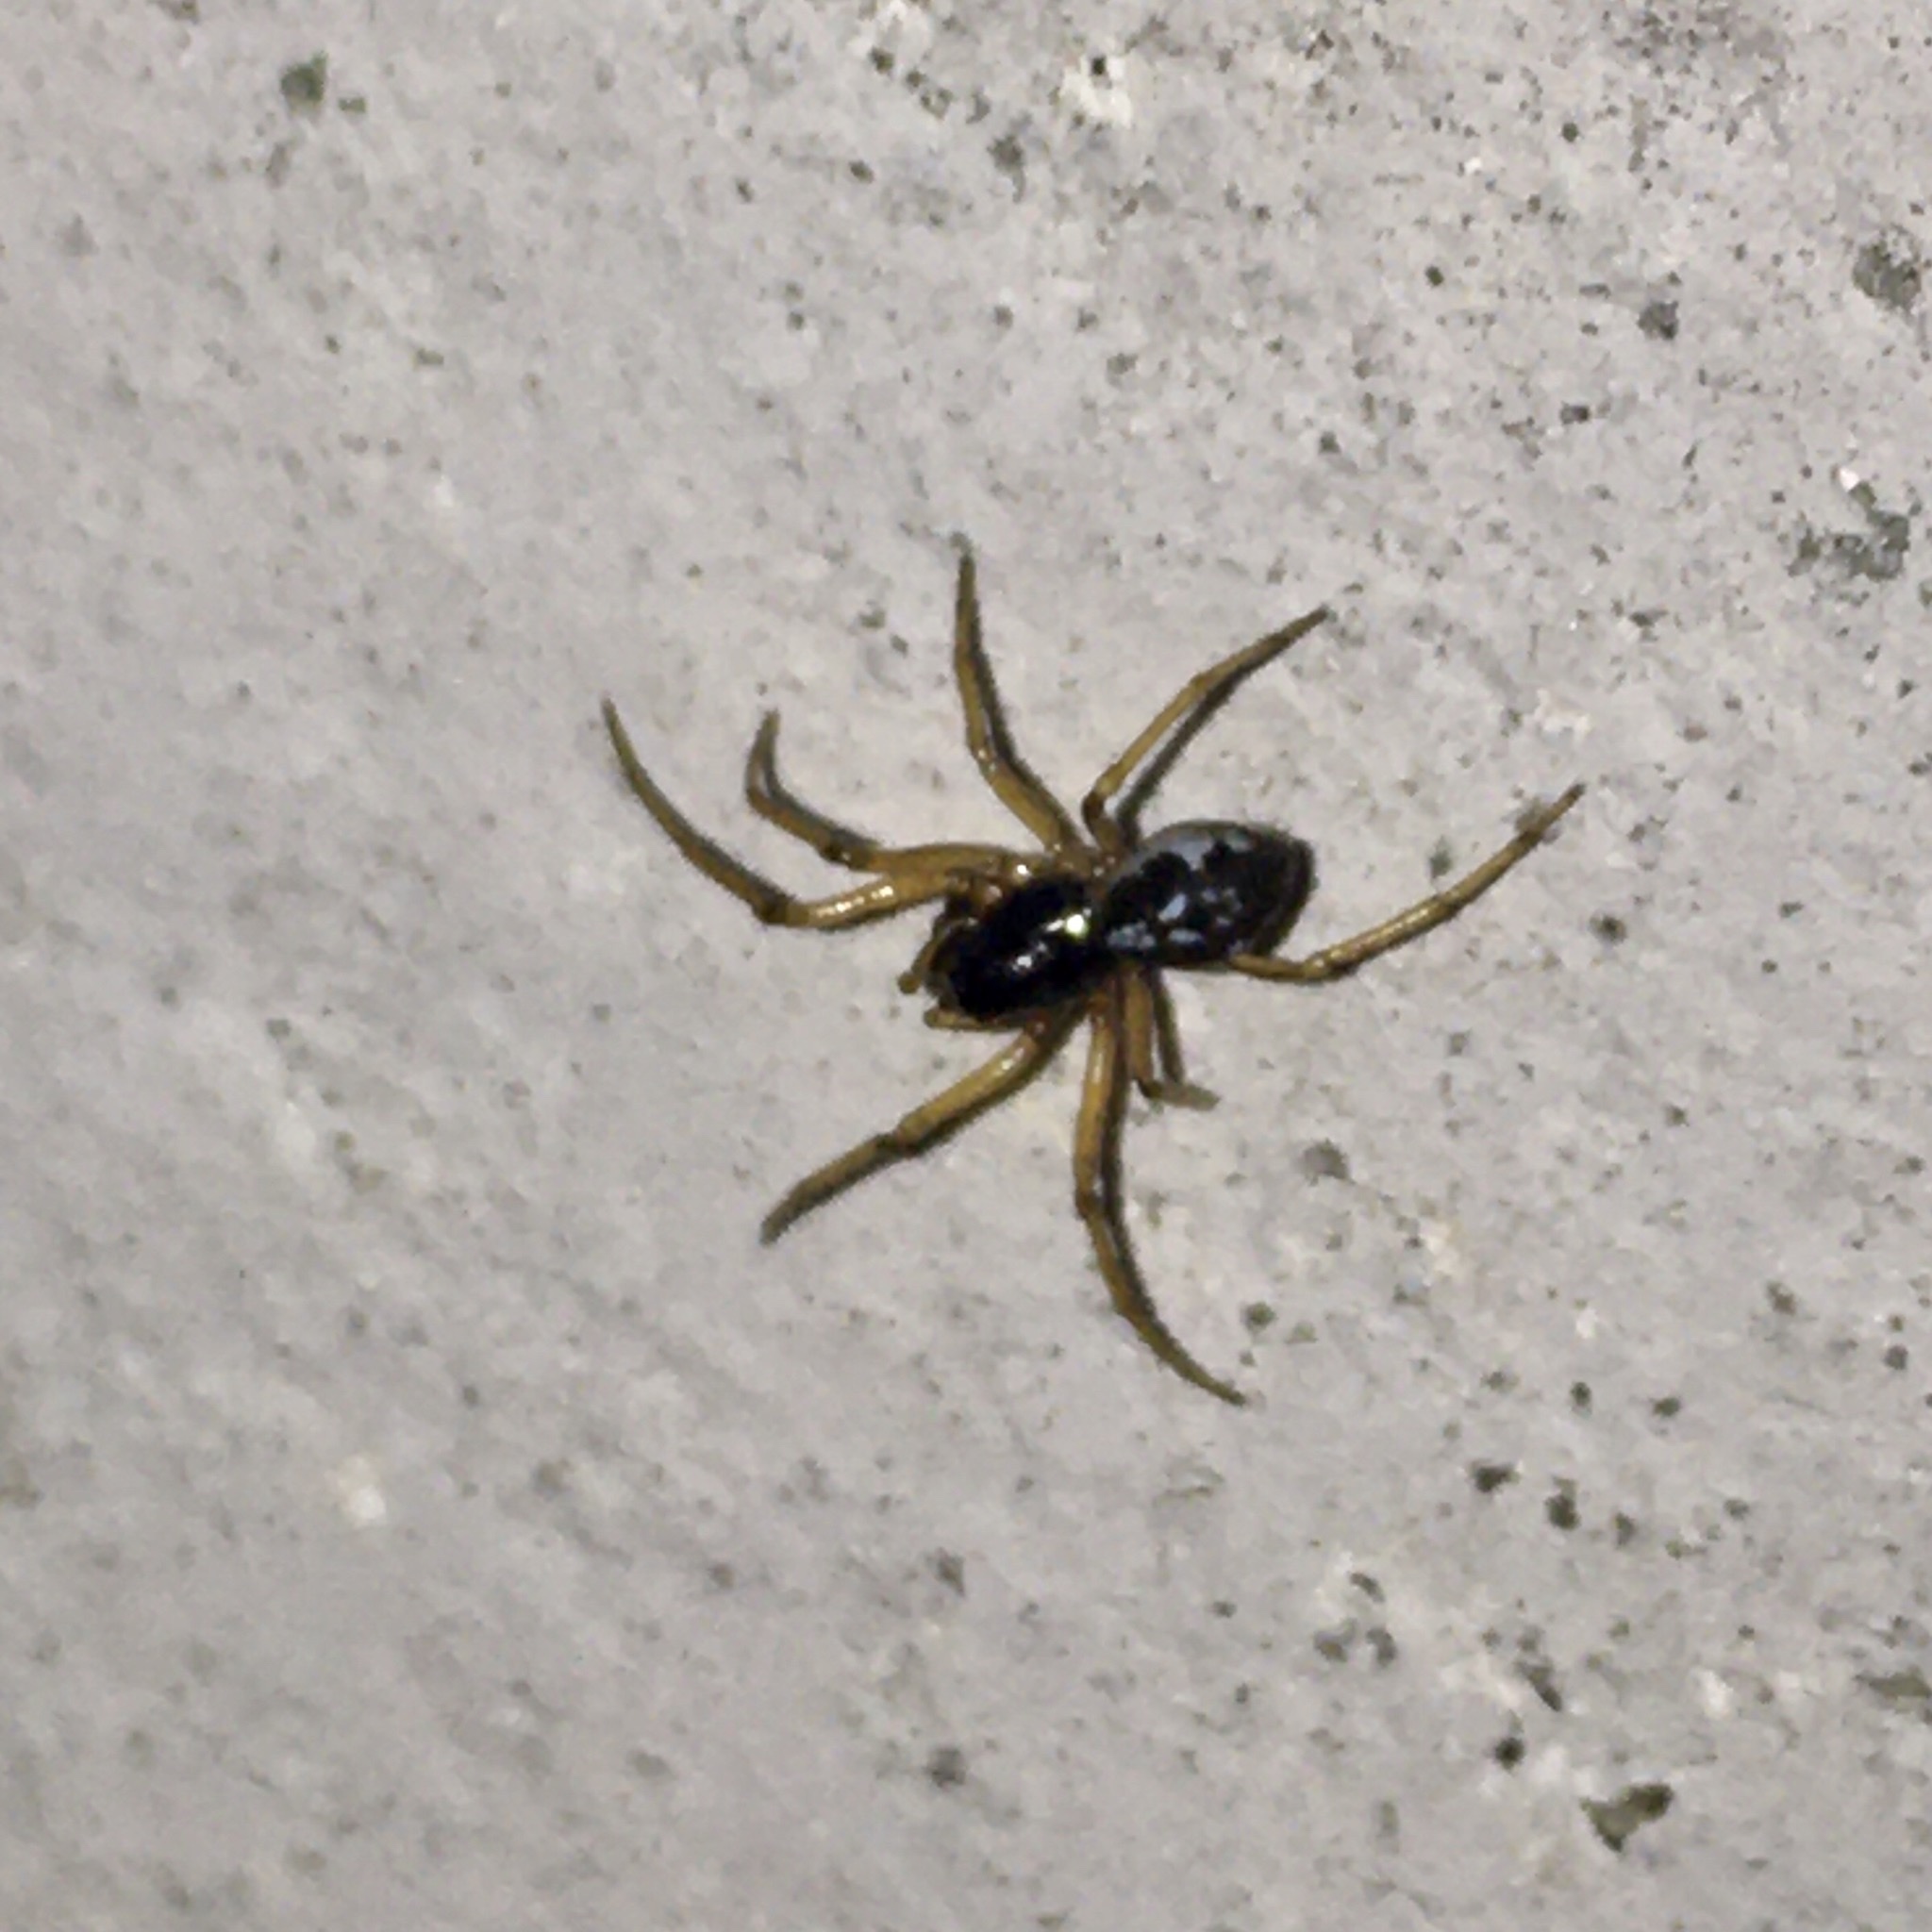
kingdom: Animalia
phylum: Arthropoda
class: Arachnida
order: Araneae
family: Tetragnathidae
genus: Pachygnatha
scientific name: Pachygnatha degeeri
